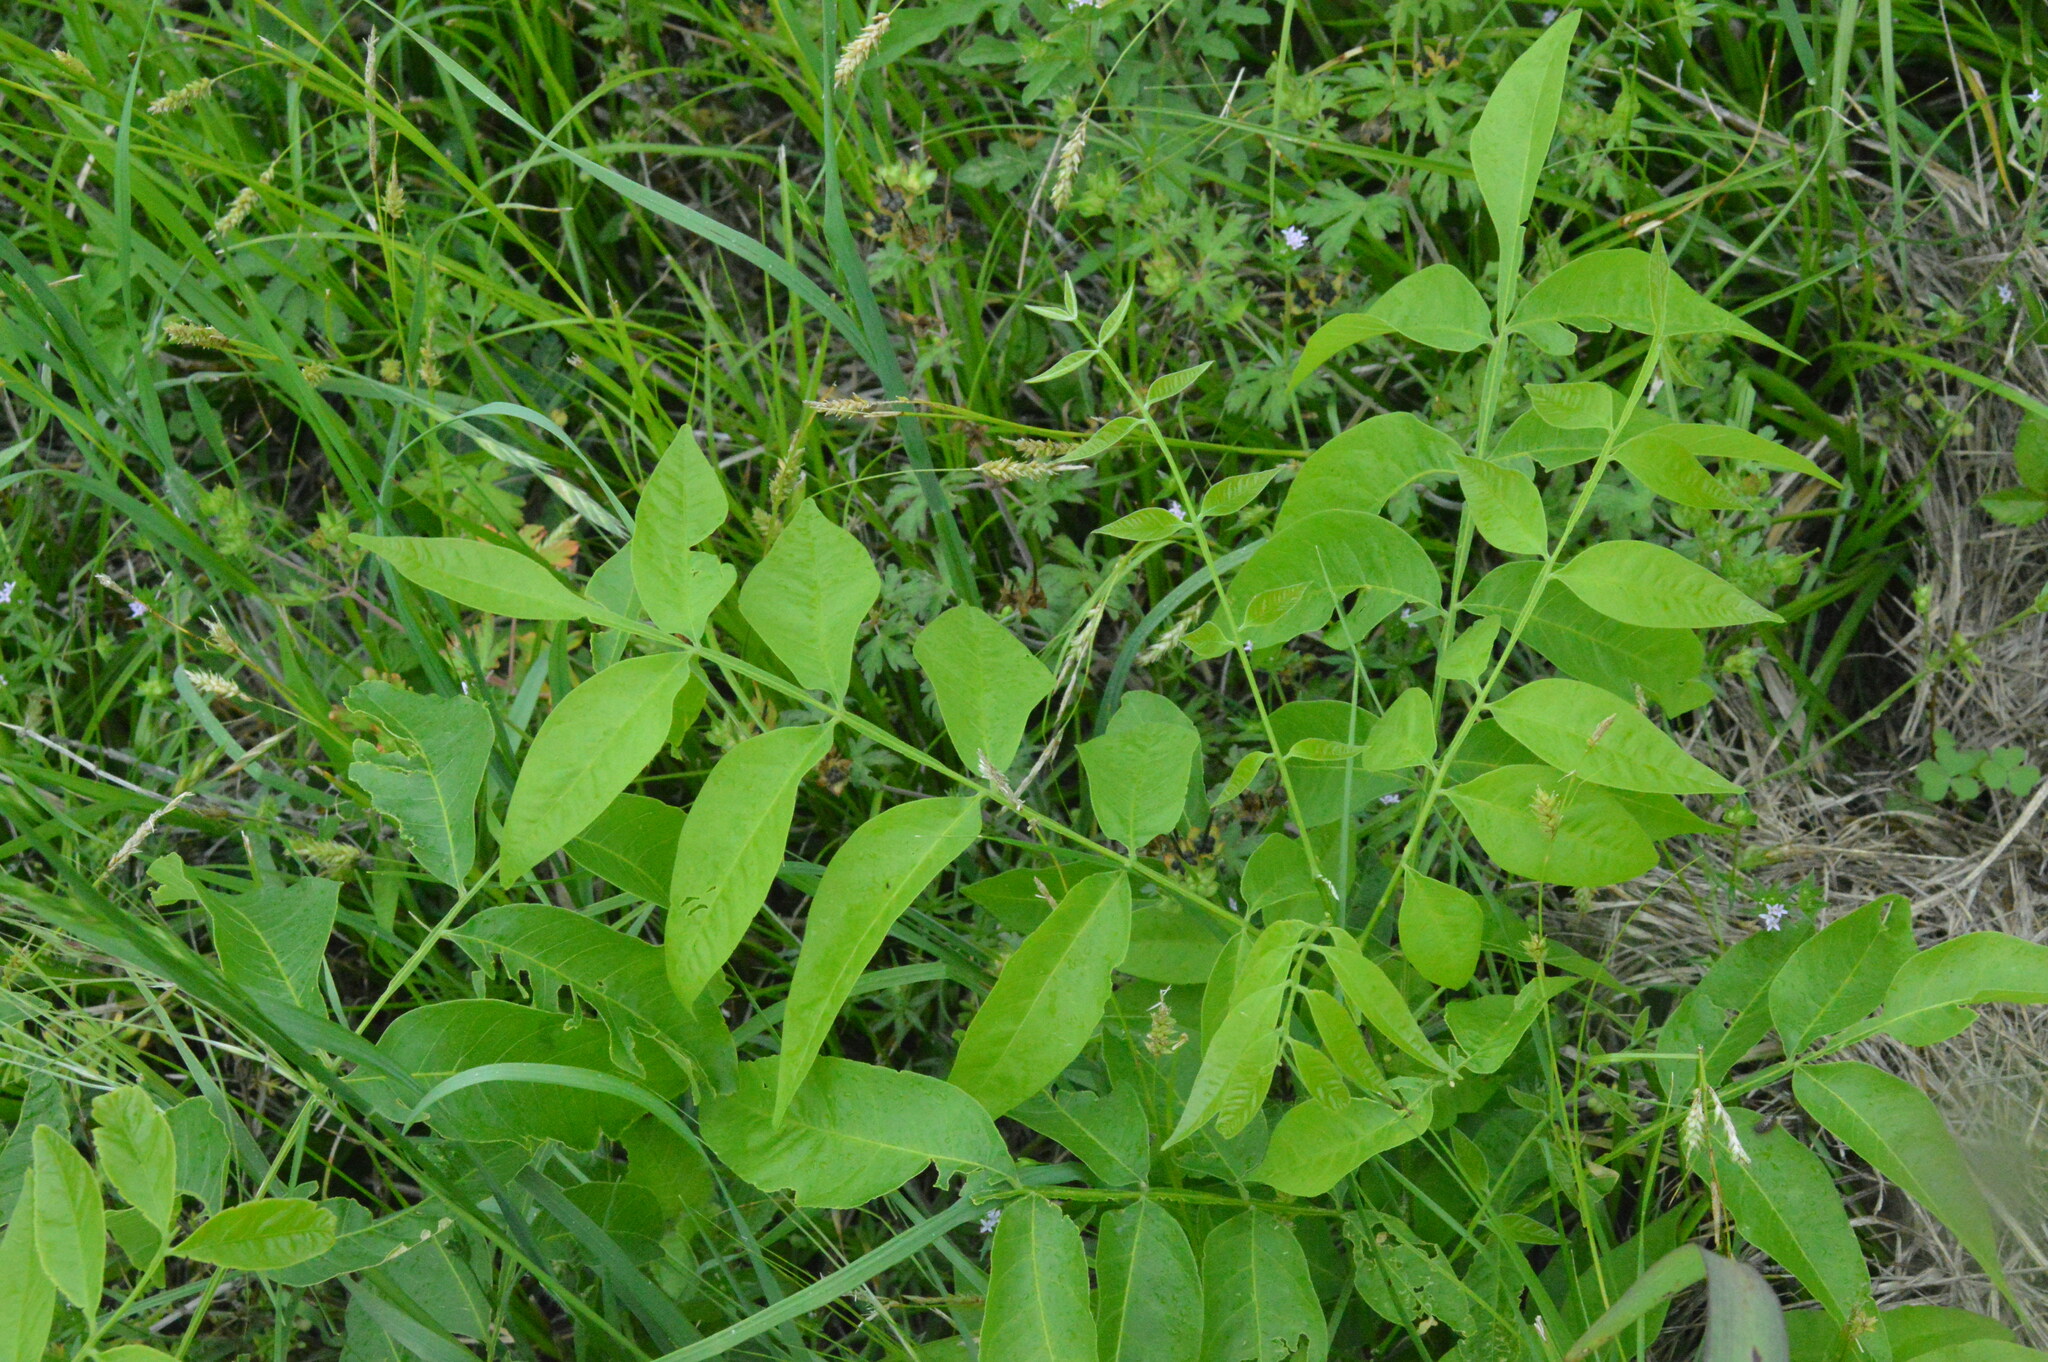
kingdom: Plantae
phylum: Tracheophyta
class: Magnoliopsida
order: Sapindales
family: Anacardiaceae
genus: Rhus
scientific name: Rhus copallina
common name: Shining sumac
